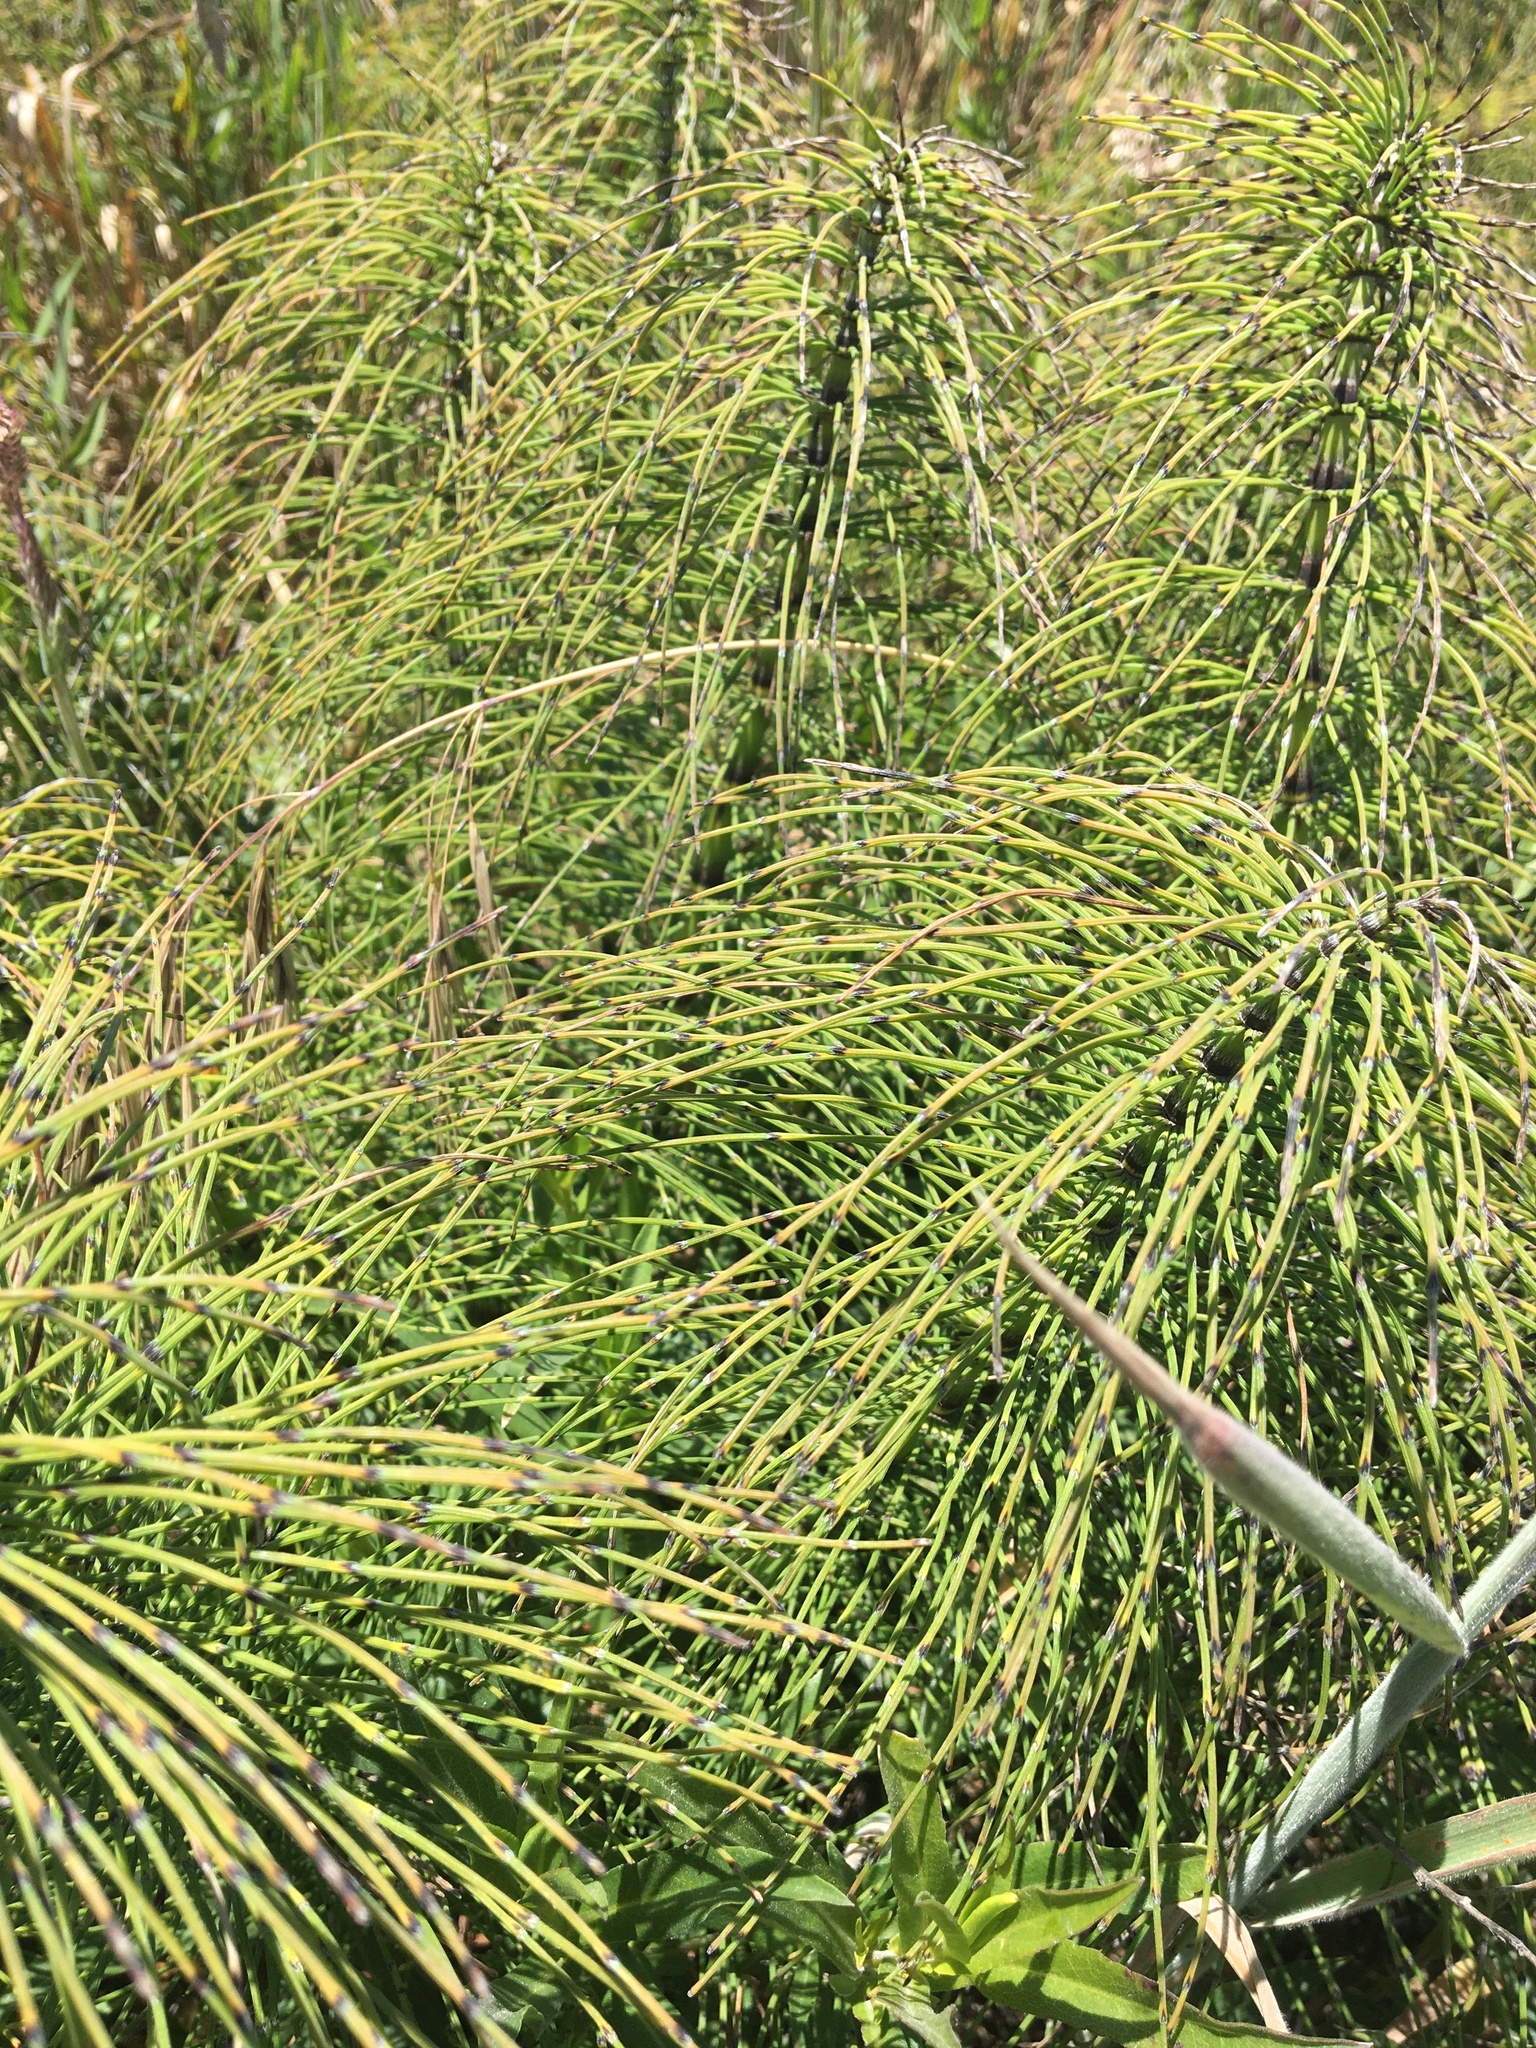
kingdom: Plantae
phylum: Tracheophyta
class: Polypodiopsida
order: Equisetales
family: Equisetaceae
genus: Equisetum
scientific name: Equisetum telmateia
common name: Great horsetail
